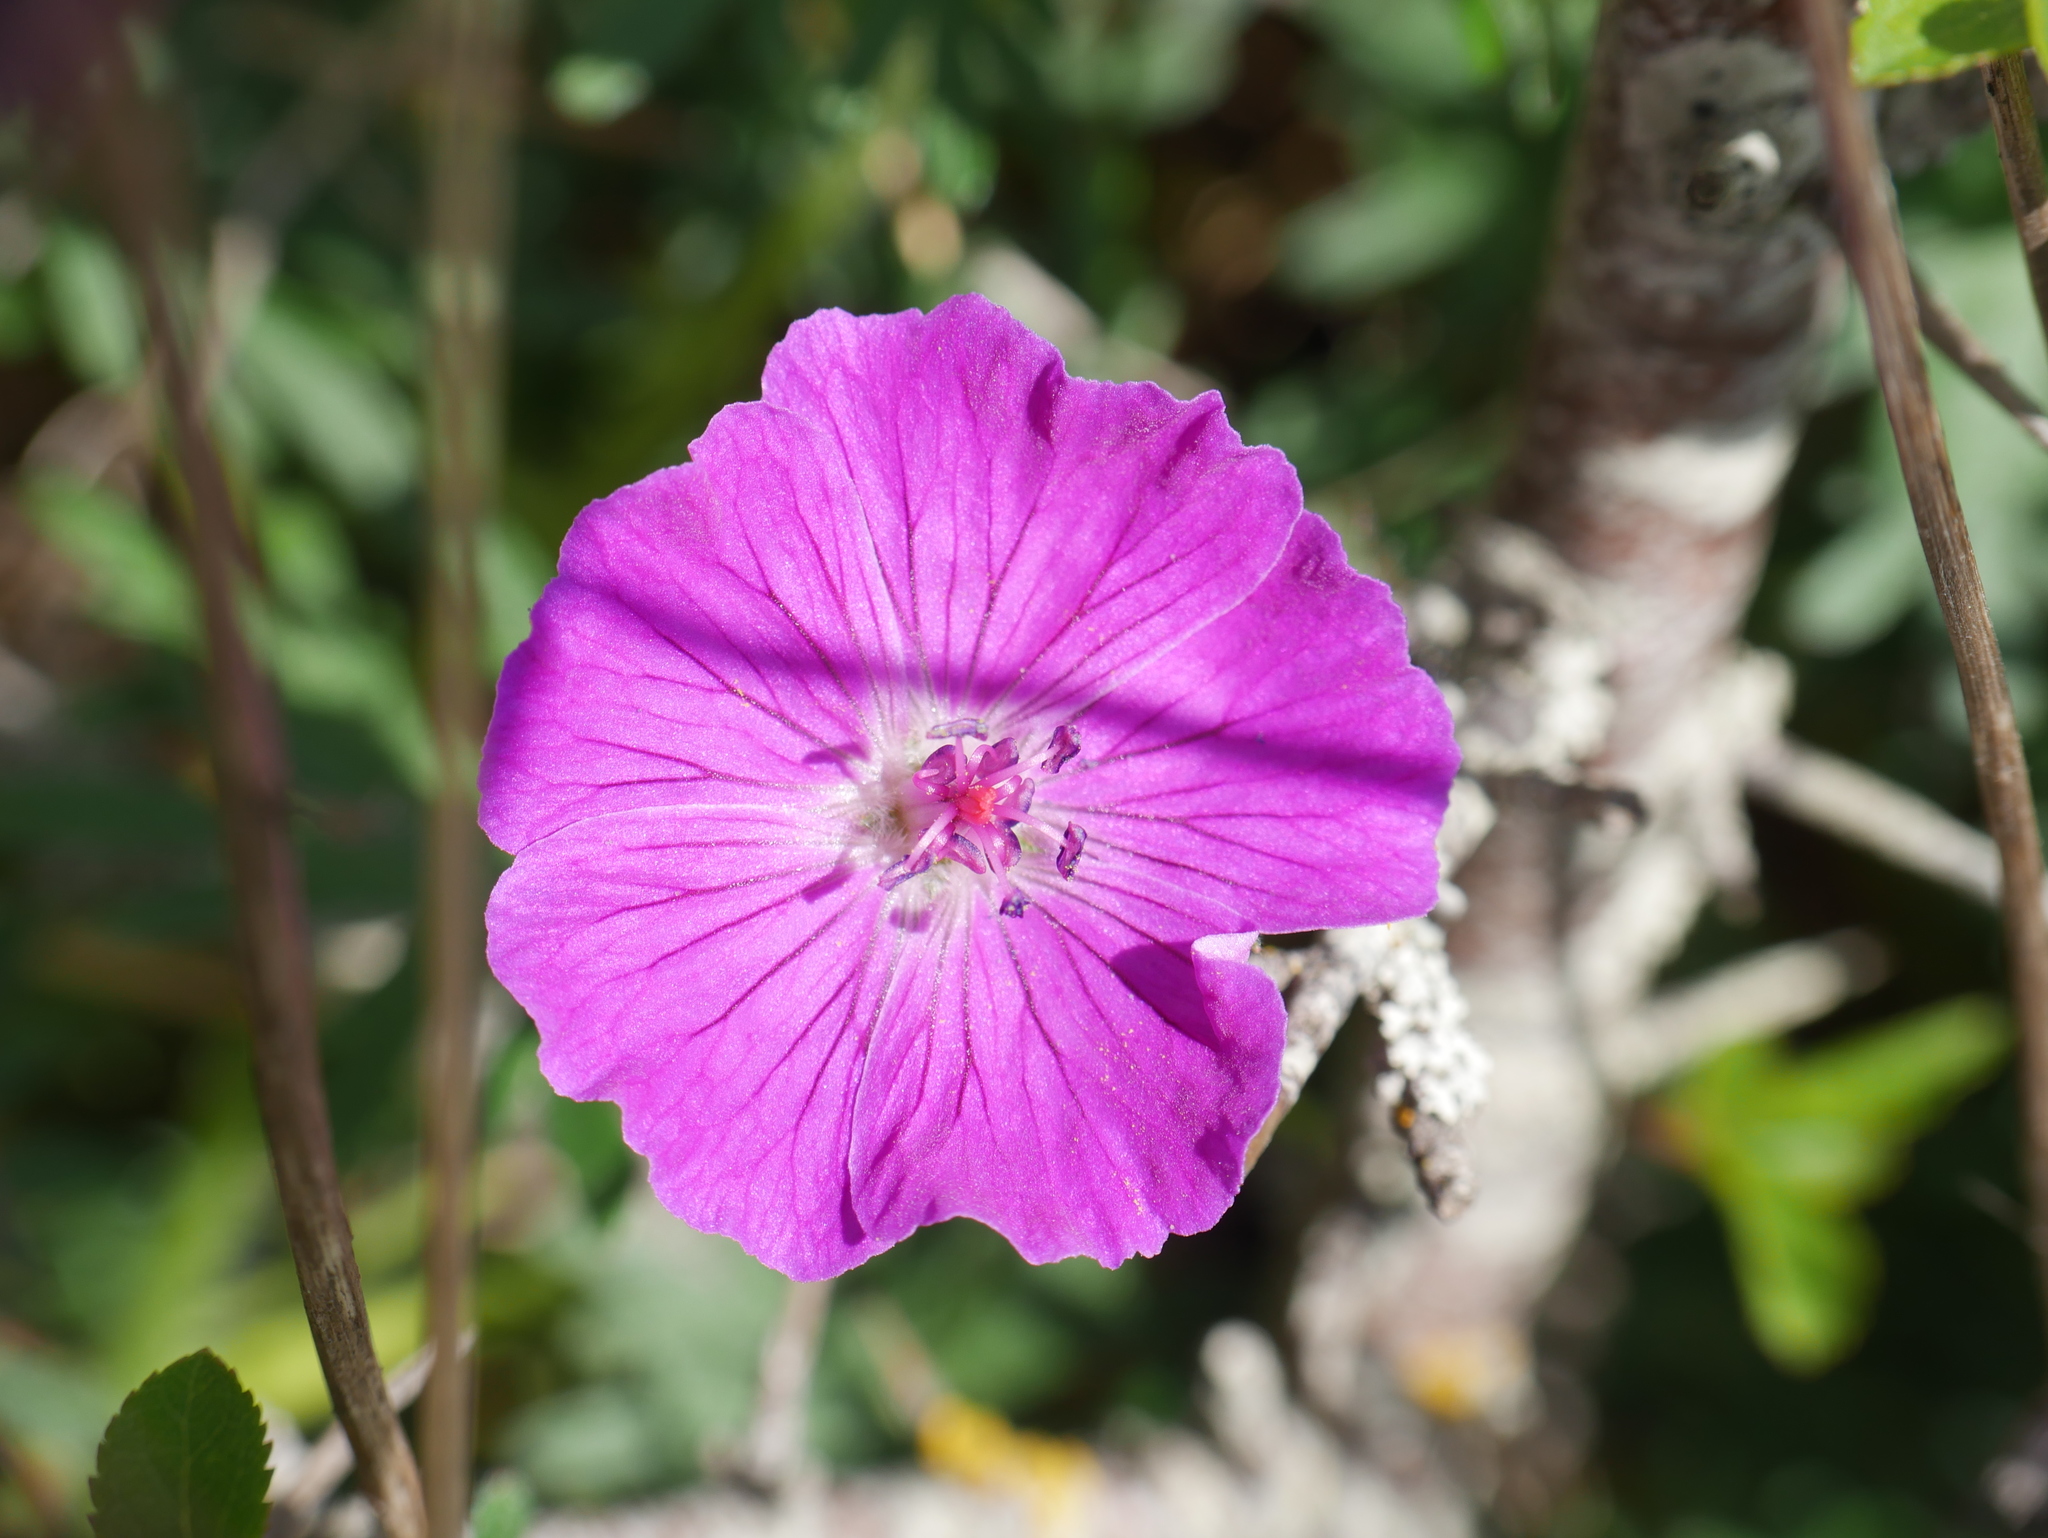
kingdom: Plantae
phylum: Tracheophyta
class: Magnoliopsida
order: Geraniales
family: Geraniaceae
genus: Geranium
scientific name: Geranium sanguineum
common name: Bloody crane's-bill
